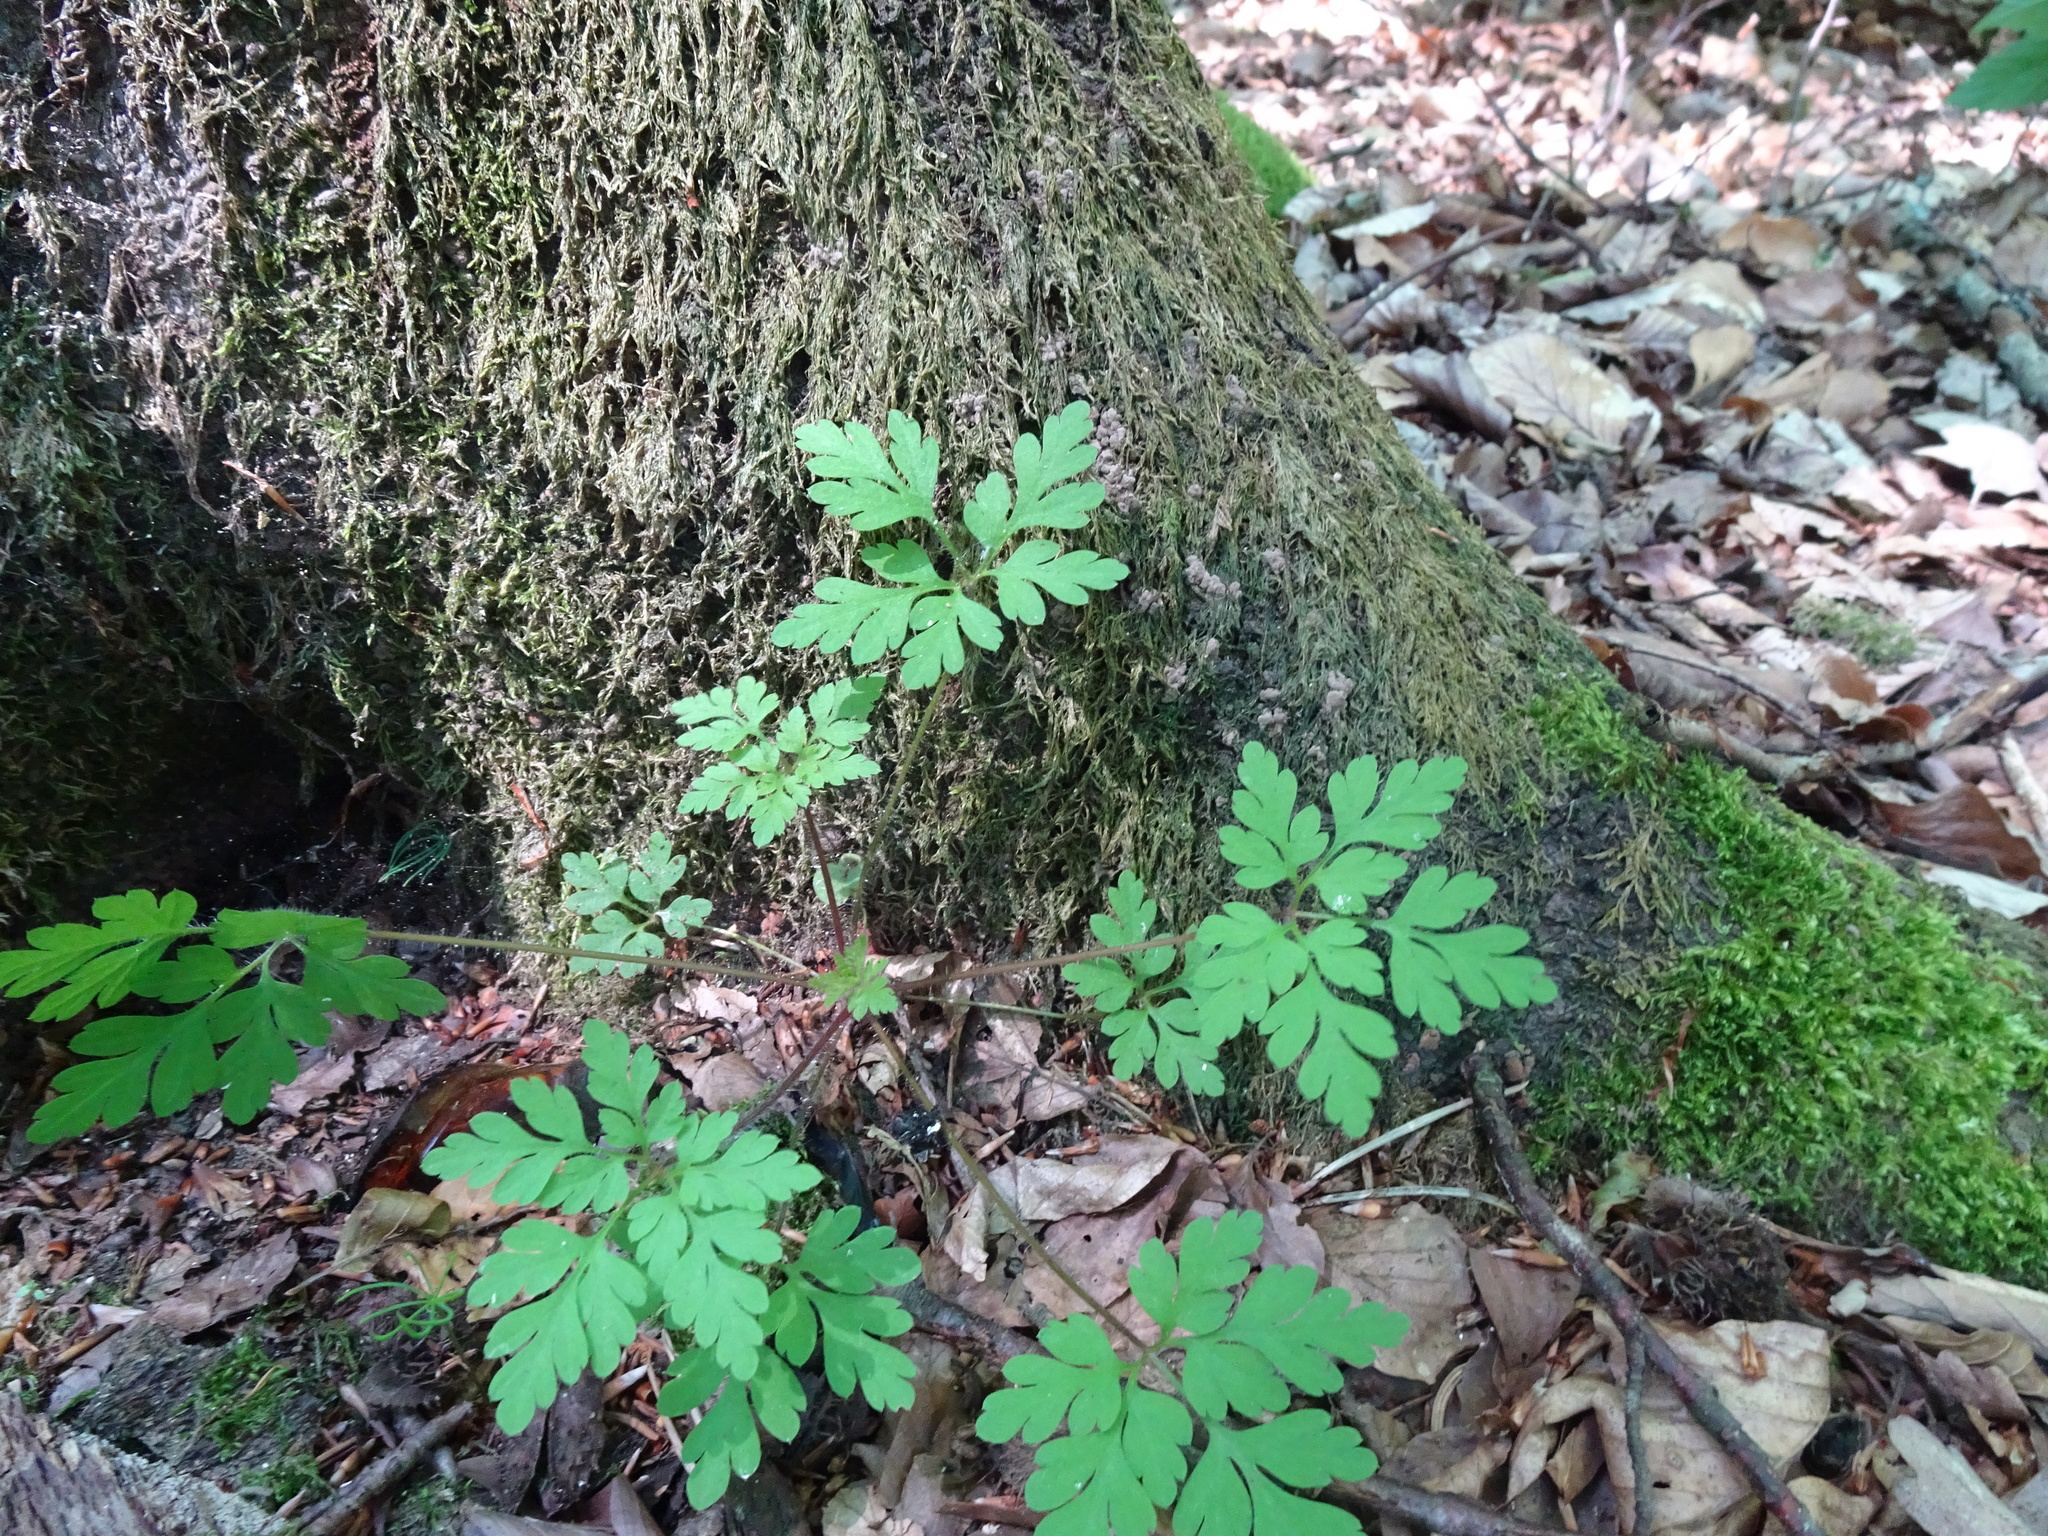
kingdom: Plantae
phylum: Tracheophyta
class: Magnoliopsida
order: Geraniales
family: Geraniaceae
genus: Geranium
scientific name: Geranium robertianum
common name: Herb-robert
